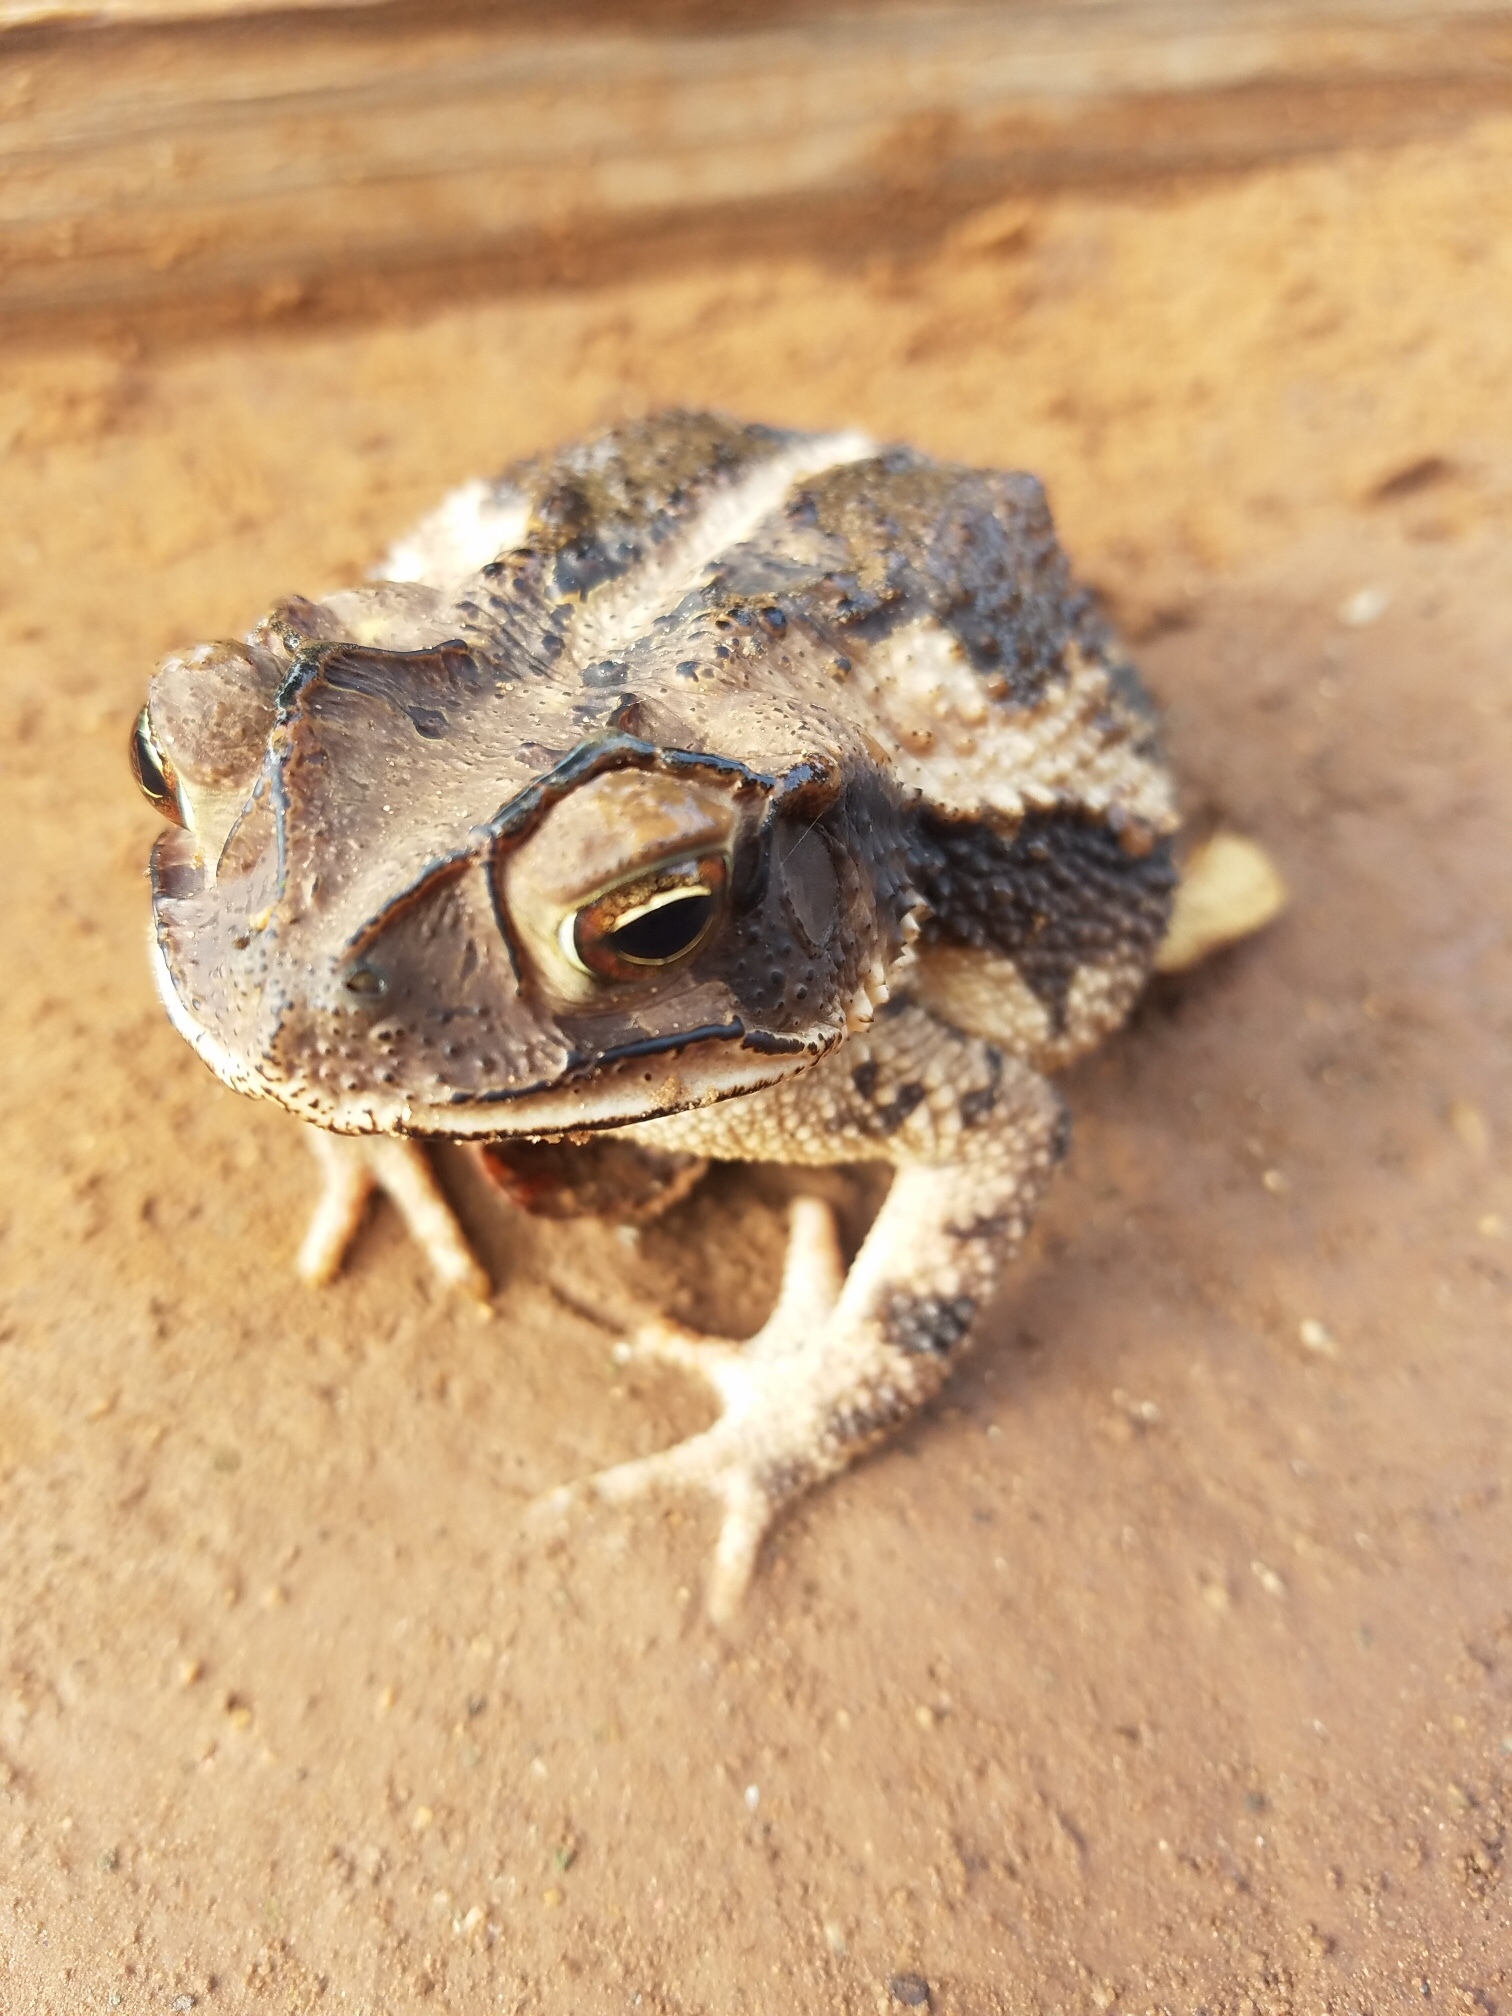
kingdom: Animalia
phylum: Chordata
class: Amphibia
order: Anura
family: Bufonidae
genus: Incilius
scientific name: Incilius nebulifer
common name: Gulf coast toad
